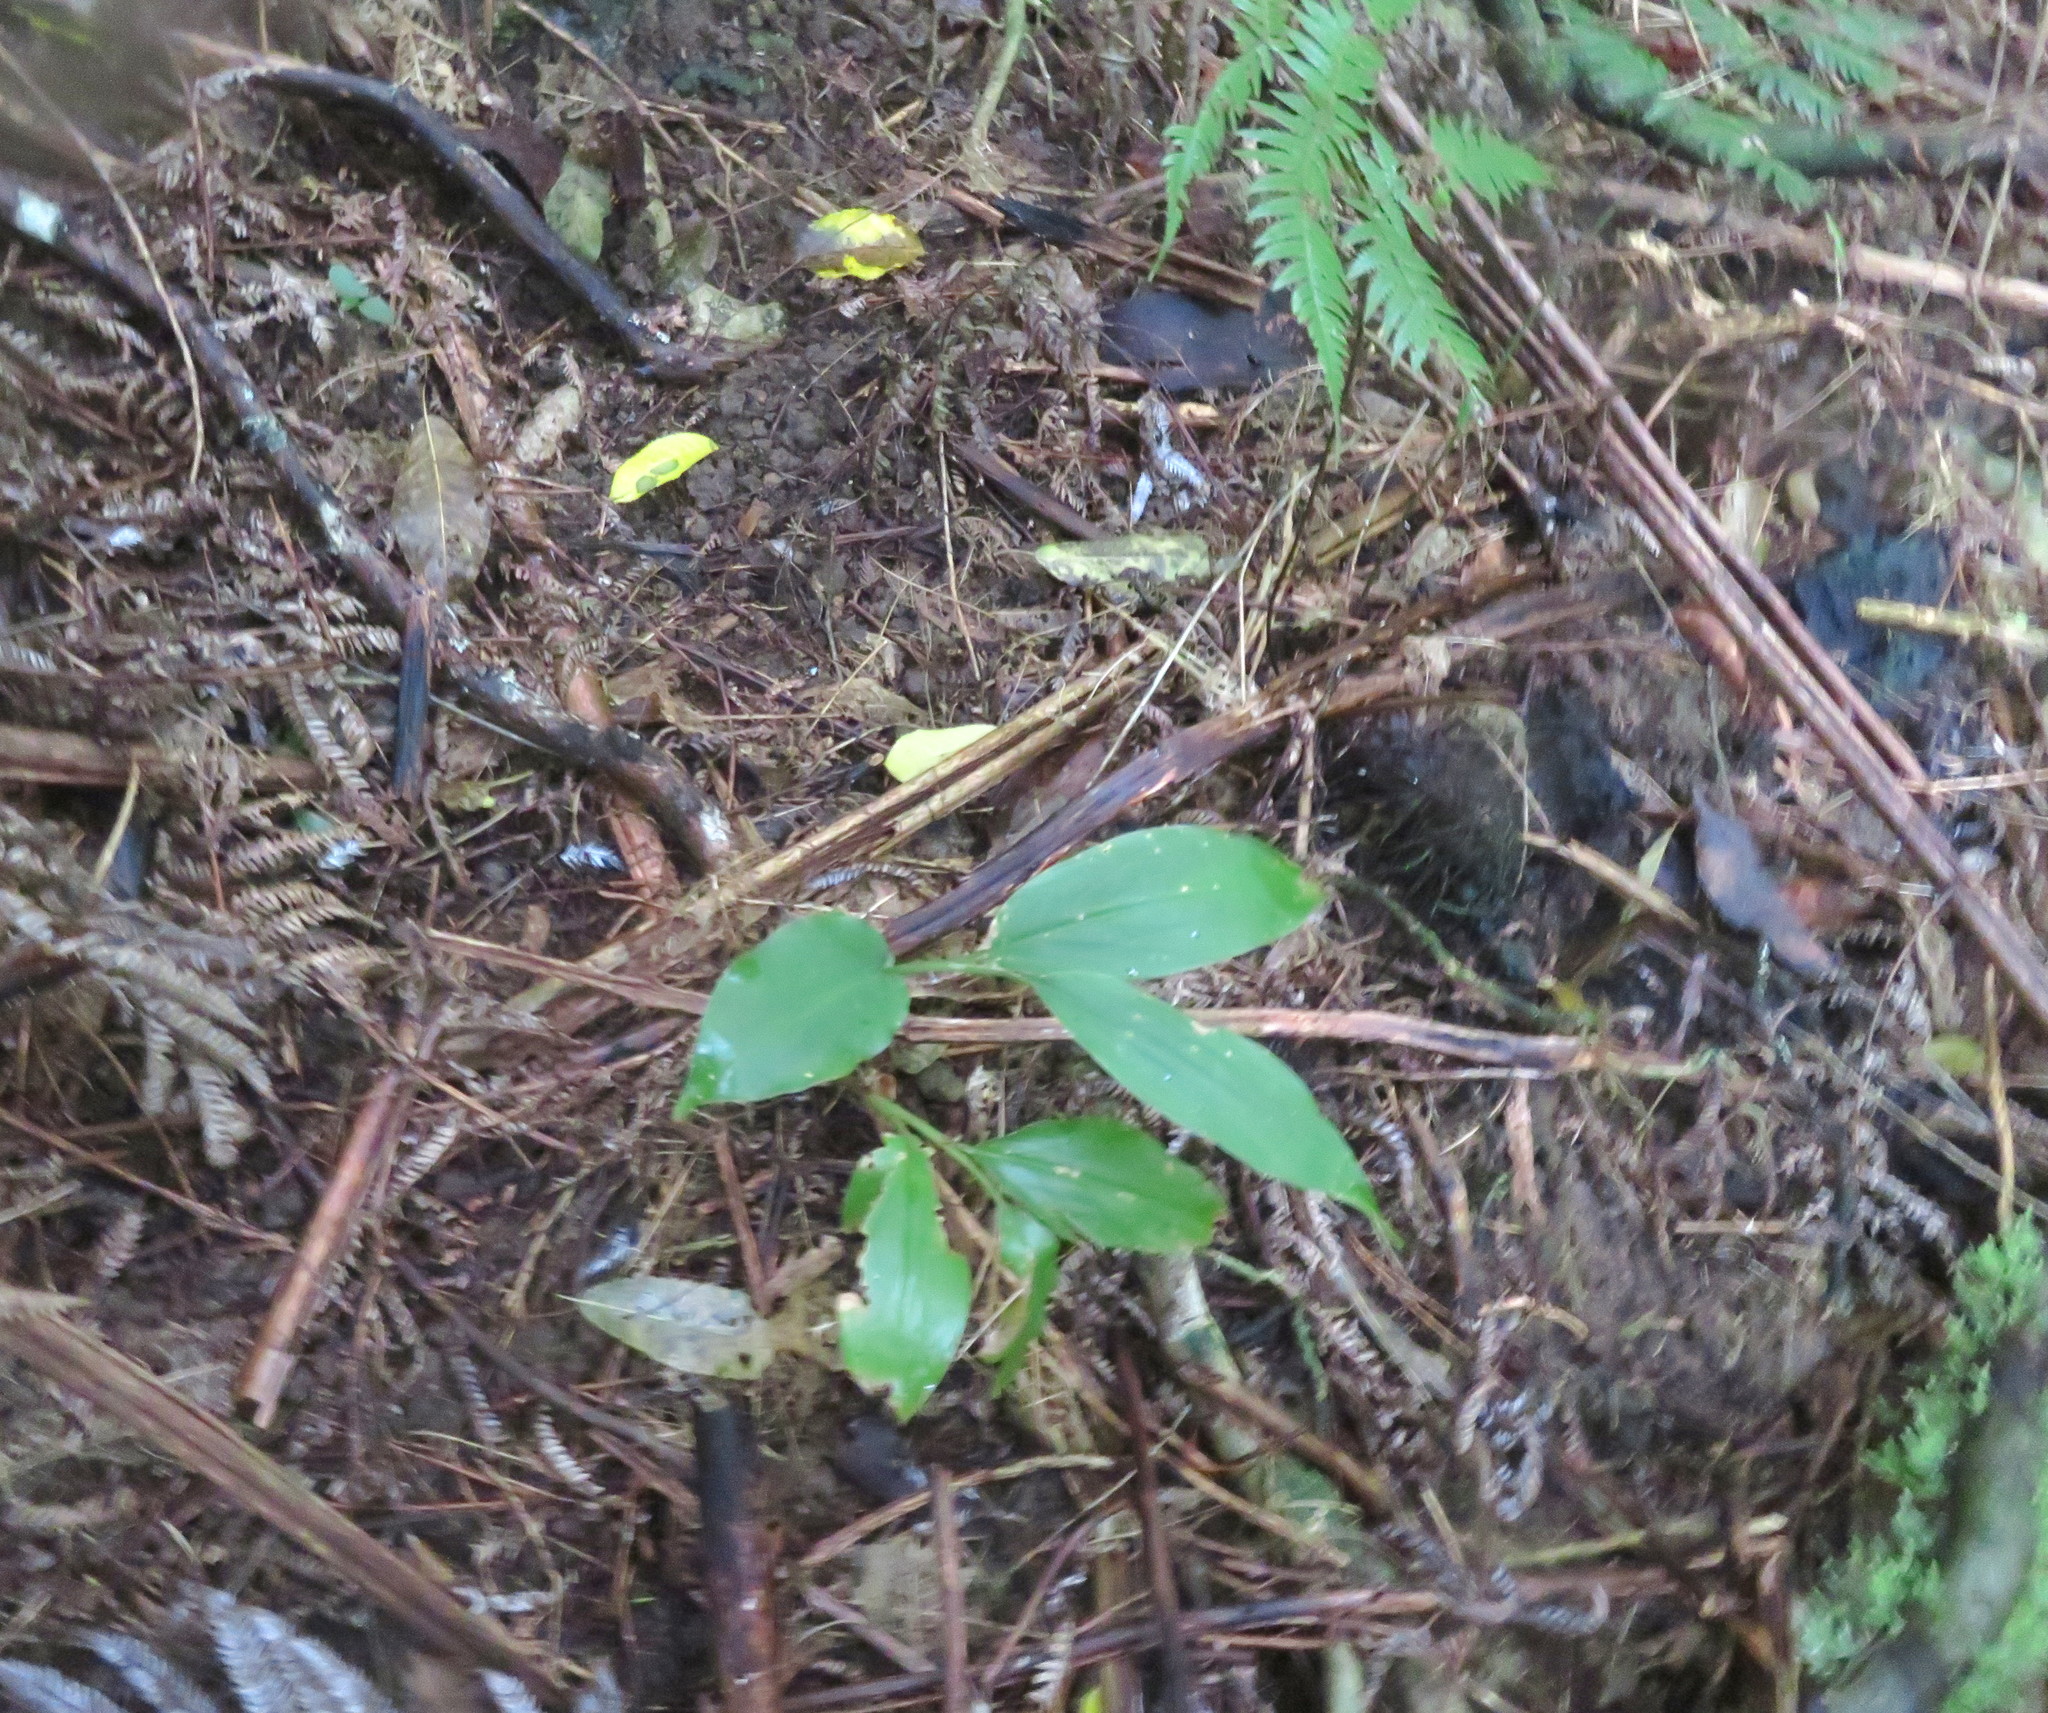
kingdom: Plantae
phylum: Tracheophyta
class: Liliopsida
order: Zingiberales
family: Zingiberaceae
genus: Hedychium
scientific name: Hedychium gardnerianum
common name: Himalayan ginger
